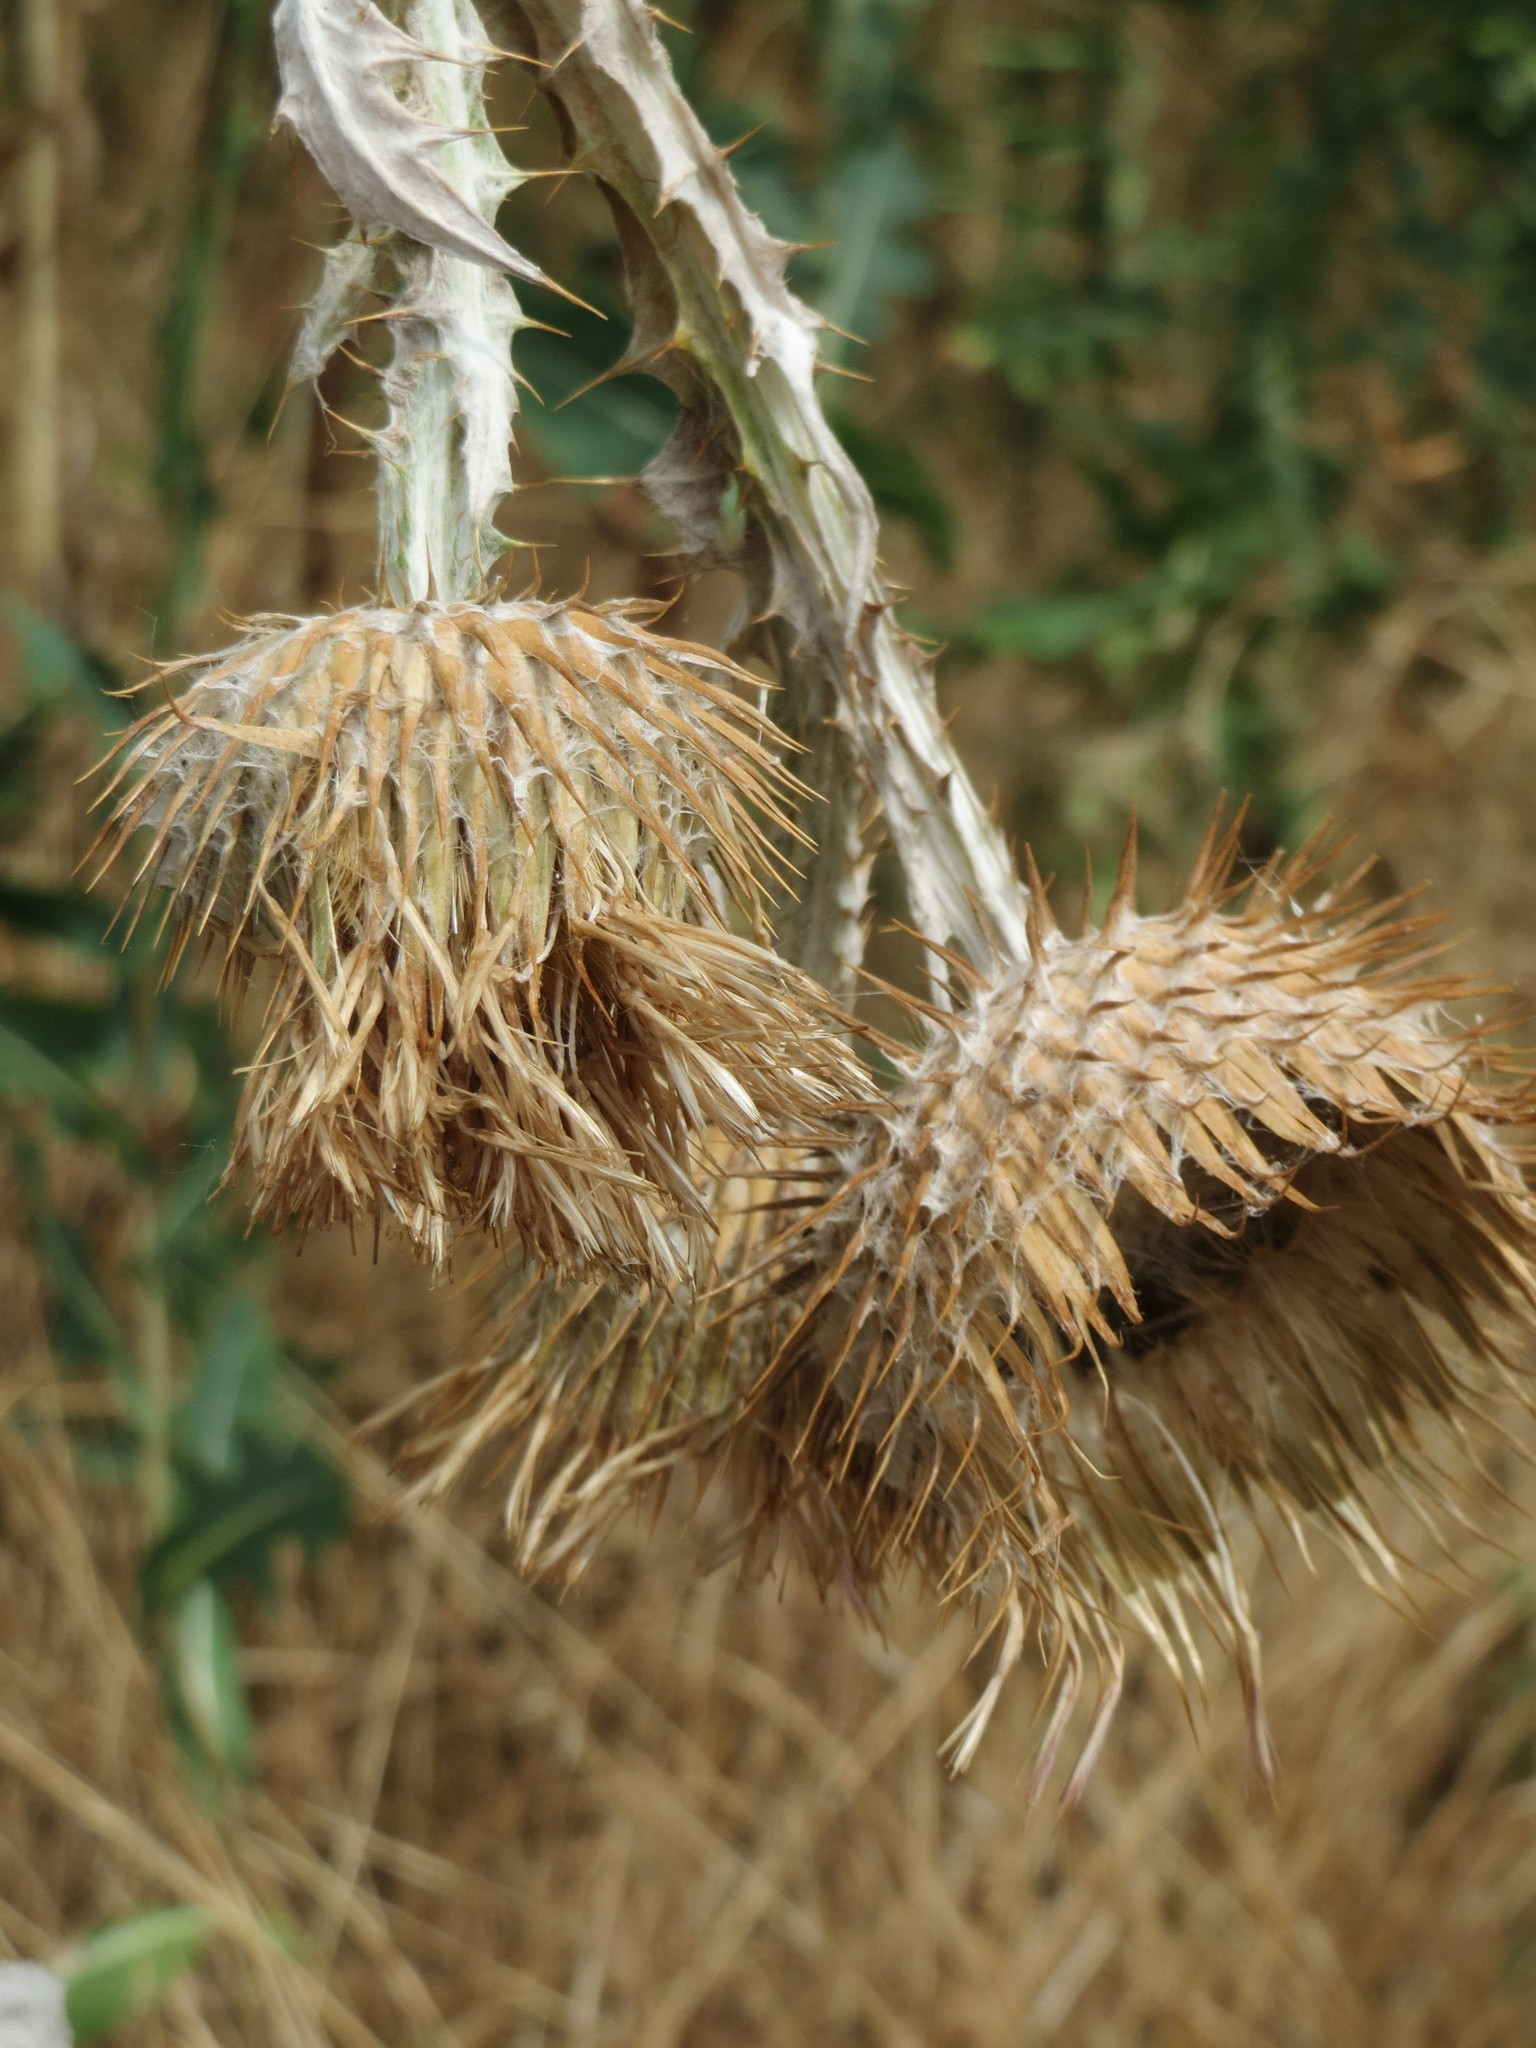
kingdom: Plantae
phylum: Tracheophyta
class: Magnoliopsida
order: Asterales
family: Asteraceae
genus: Onopordum
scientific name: Onopordum acanthium
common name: Scotch thistle
